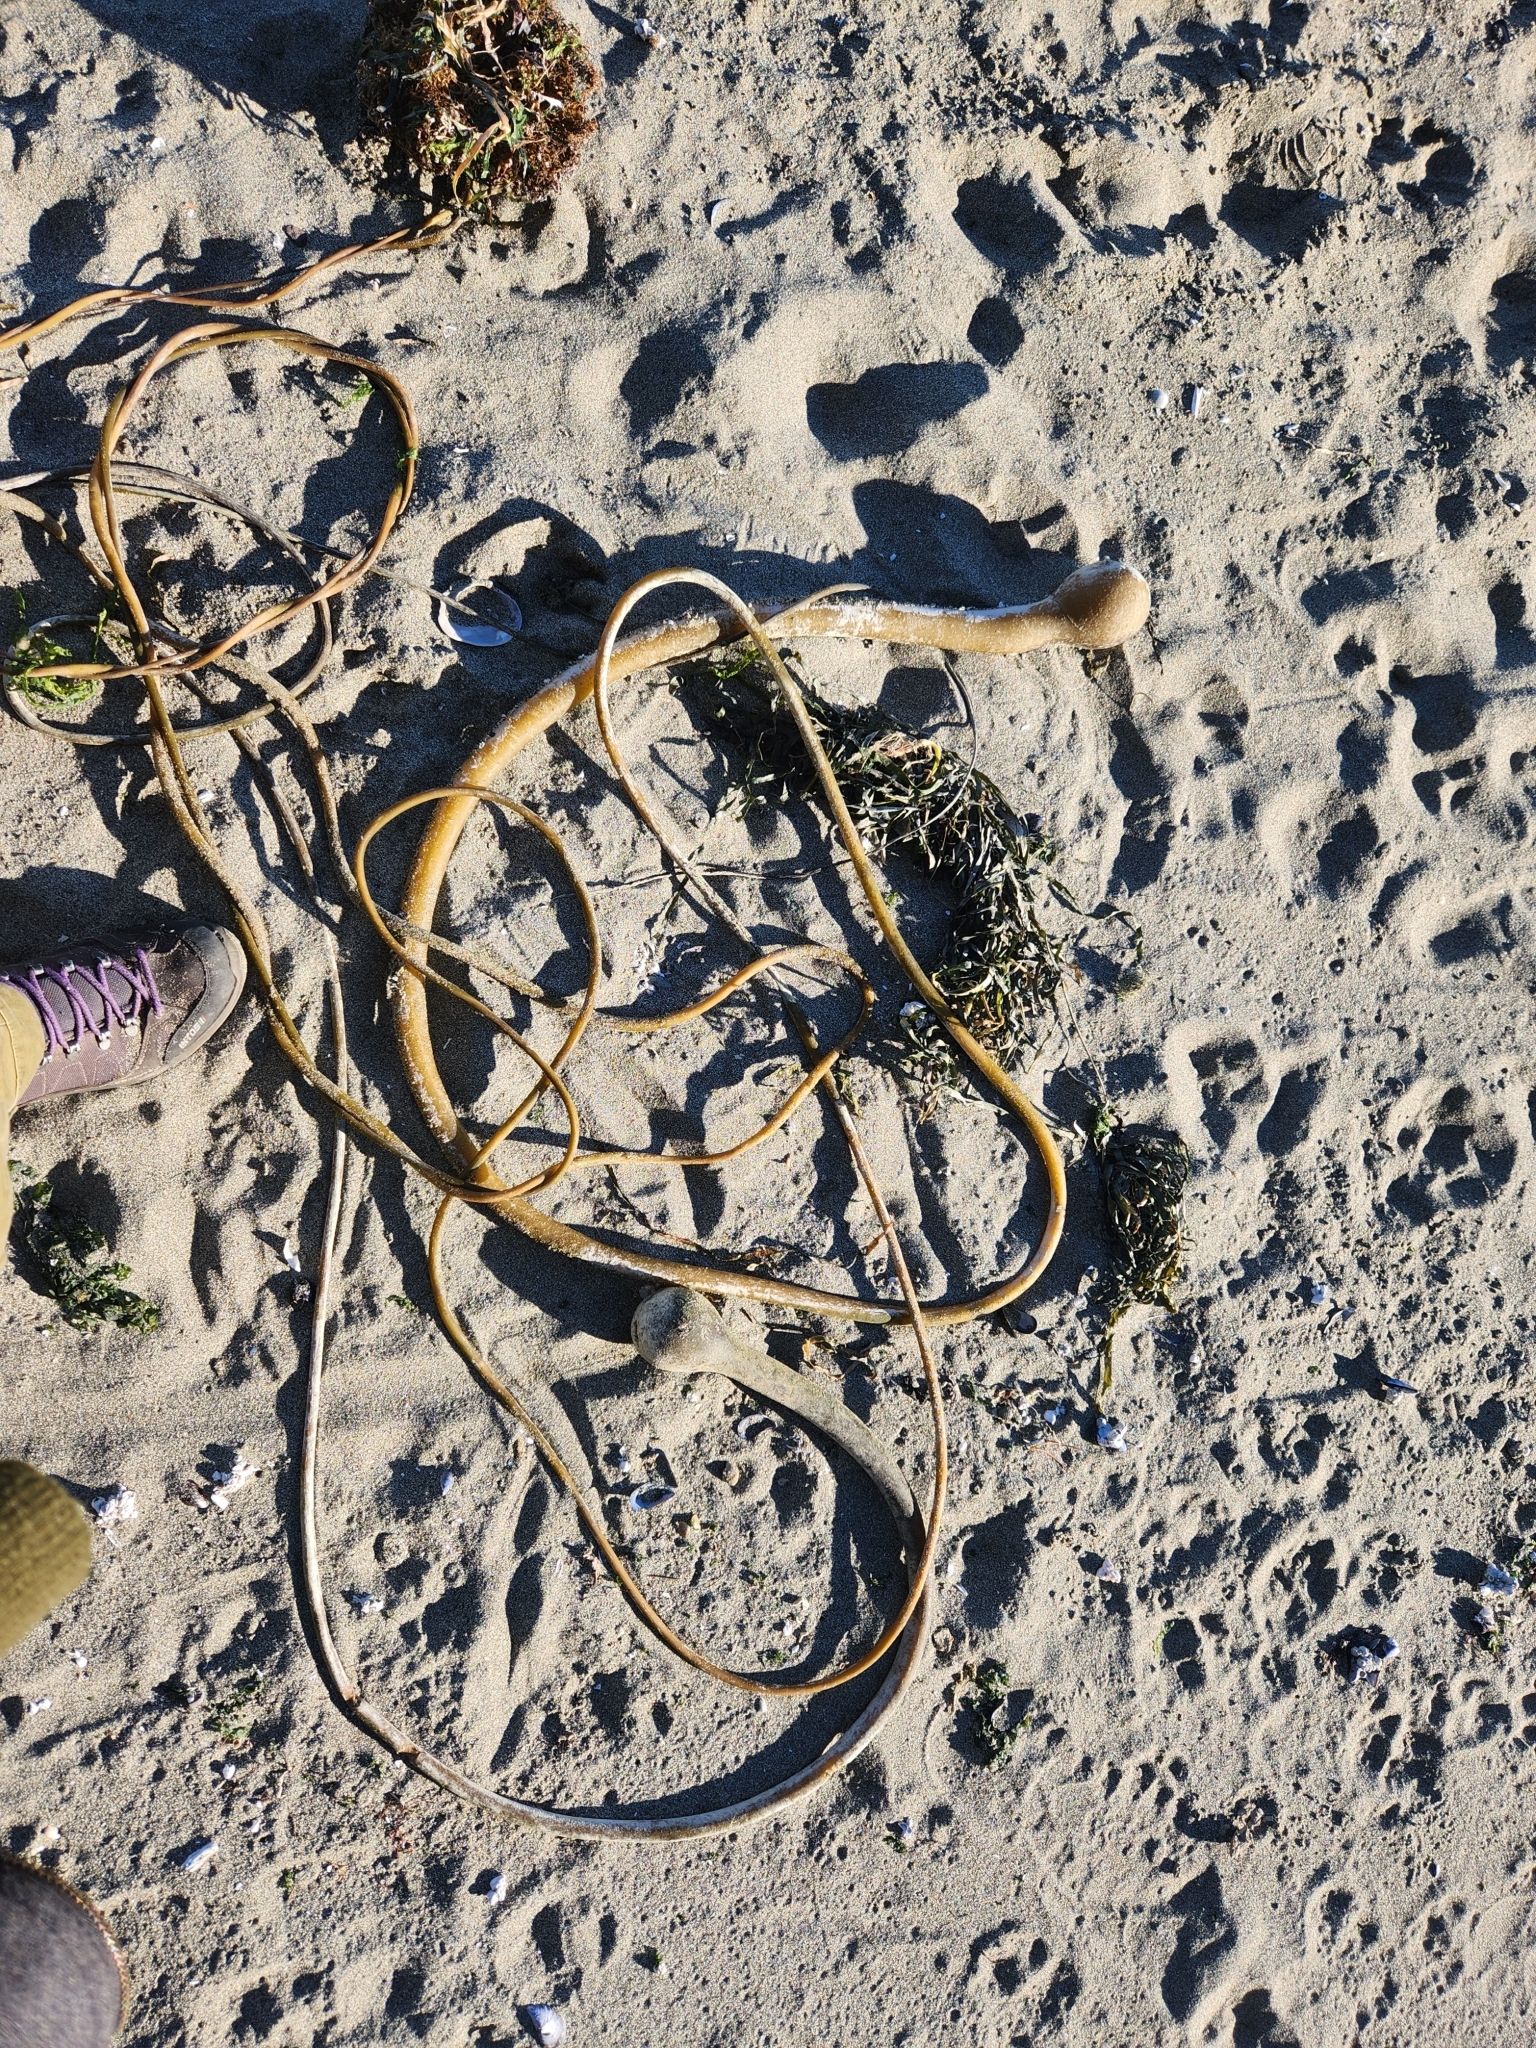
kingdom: Chromista
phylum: Ochrophyta
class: Phaeophyceae
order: Laminariales
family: Laminariaceae
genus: Nereocystis
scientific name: Nereocystis luetkeana
